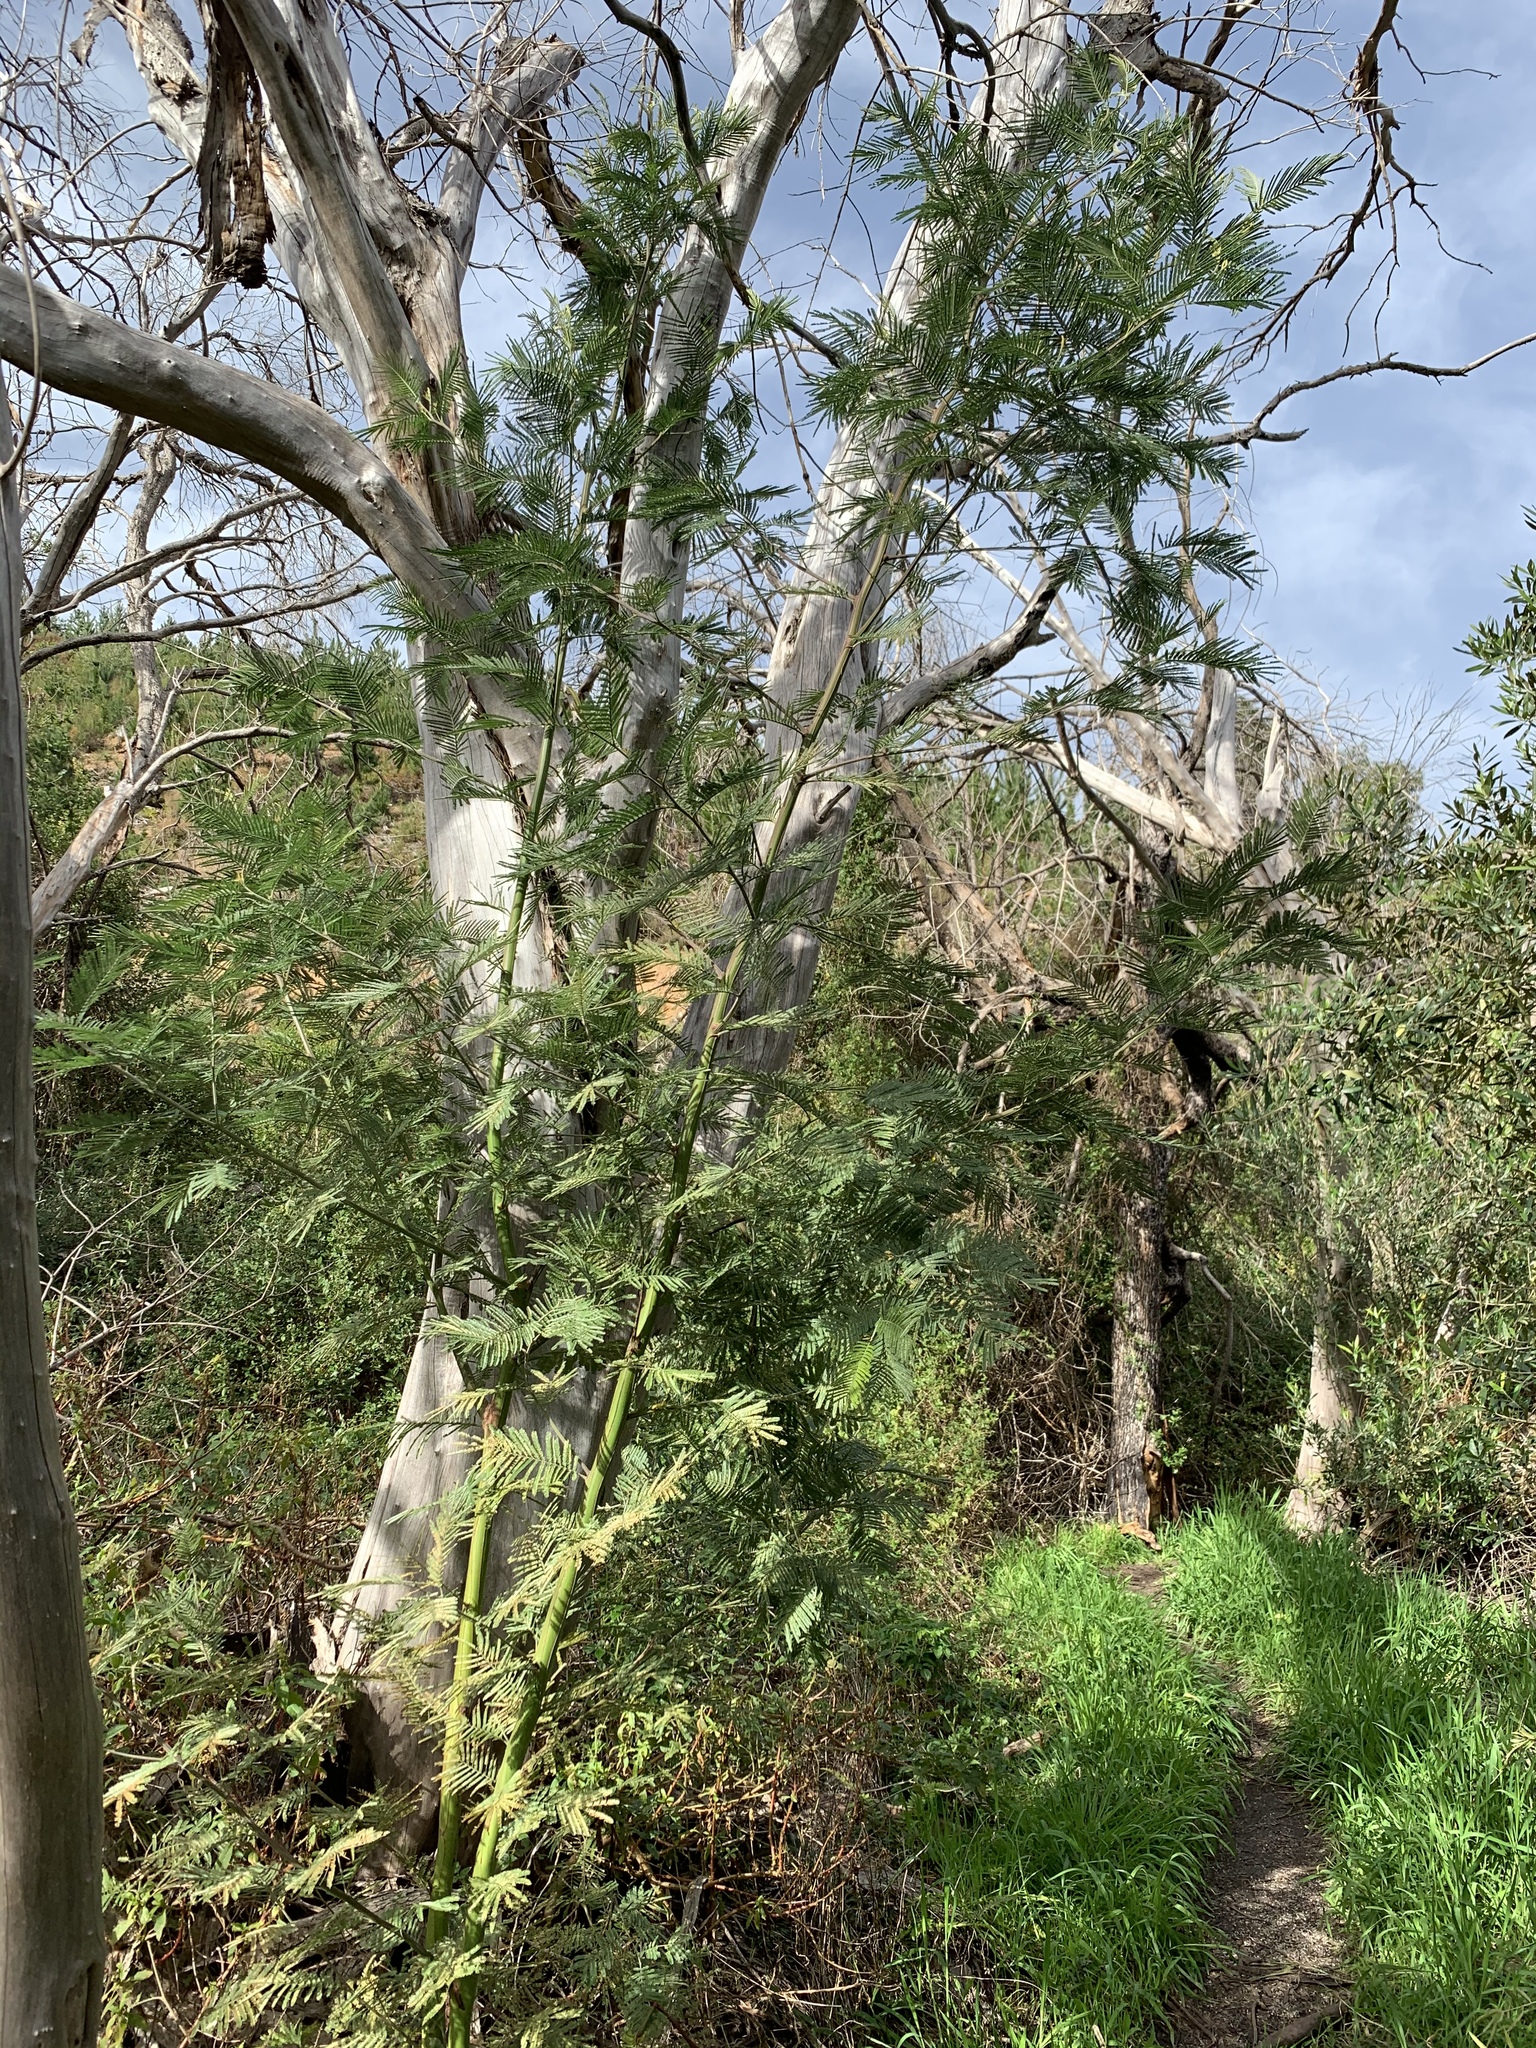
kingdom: Plantae
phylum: Tracheophyta
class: Magnoliopsida
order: Fabales
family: Fabaceae
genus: Acacia
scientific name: Acacia mearnsii
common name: Black wattle
